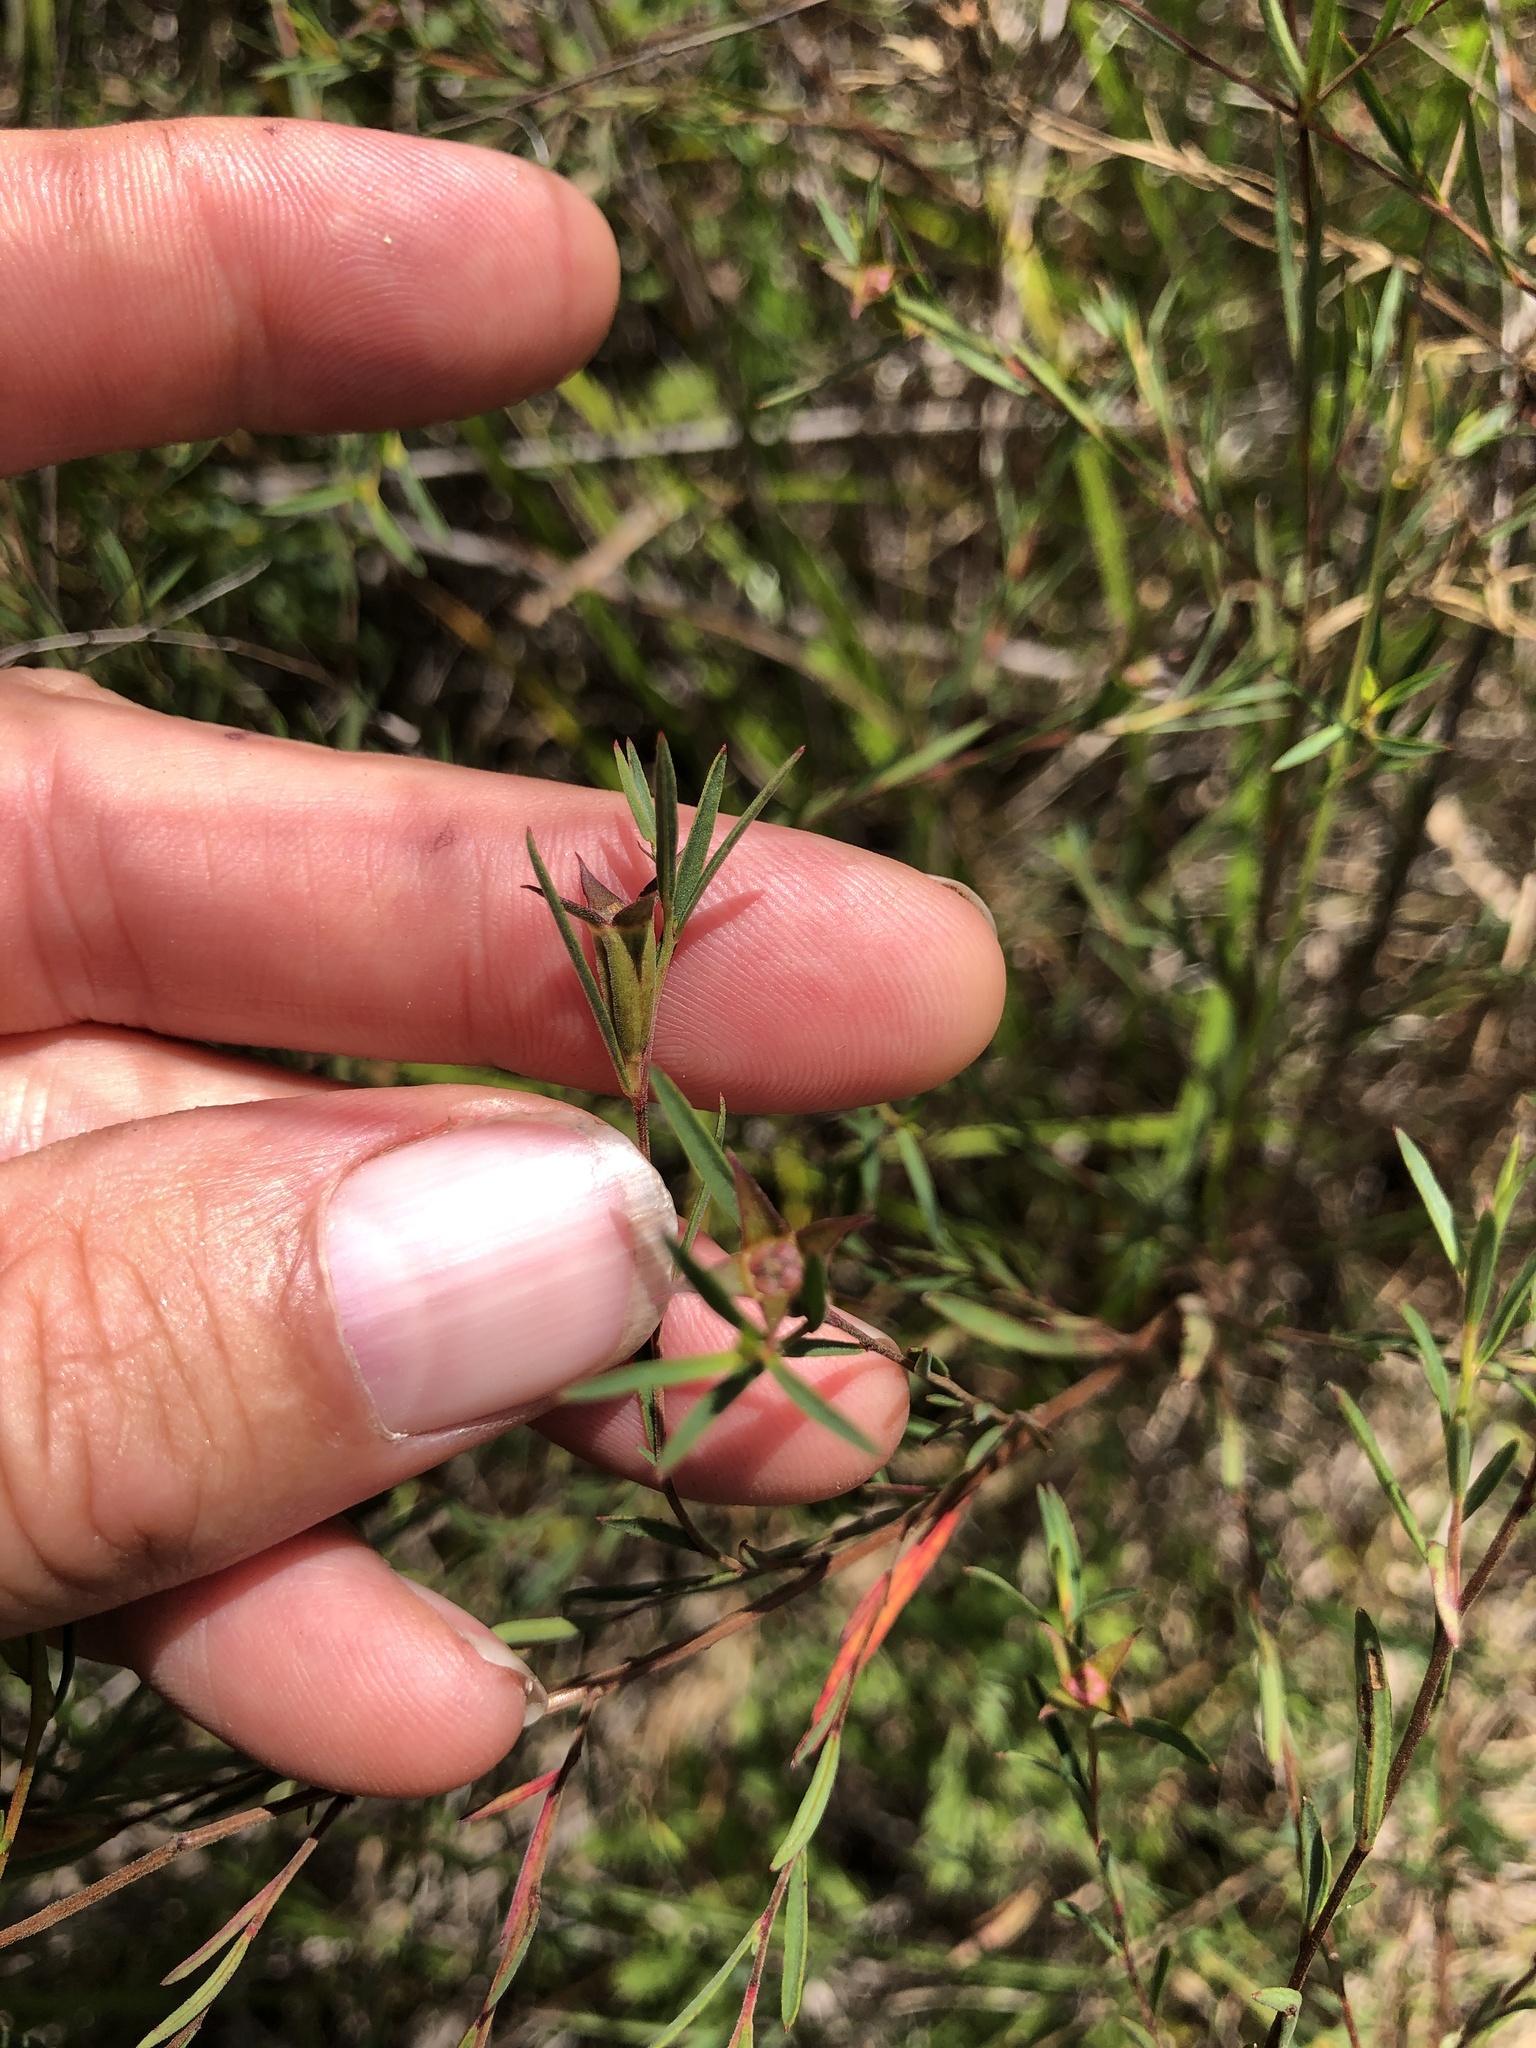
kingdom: Plantae
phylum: Tracheophyta
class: Magnoliopsida
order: Myrtales
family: Onagraceae
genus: Ludwigia
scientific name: Ludwigia linearis
